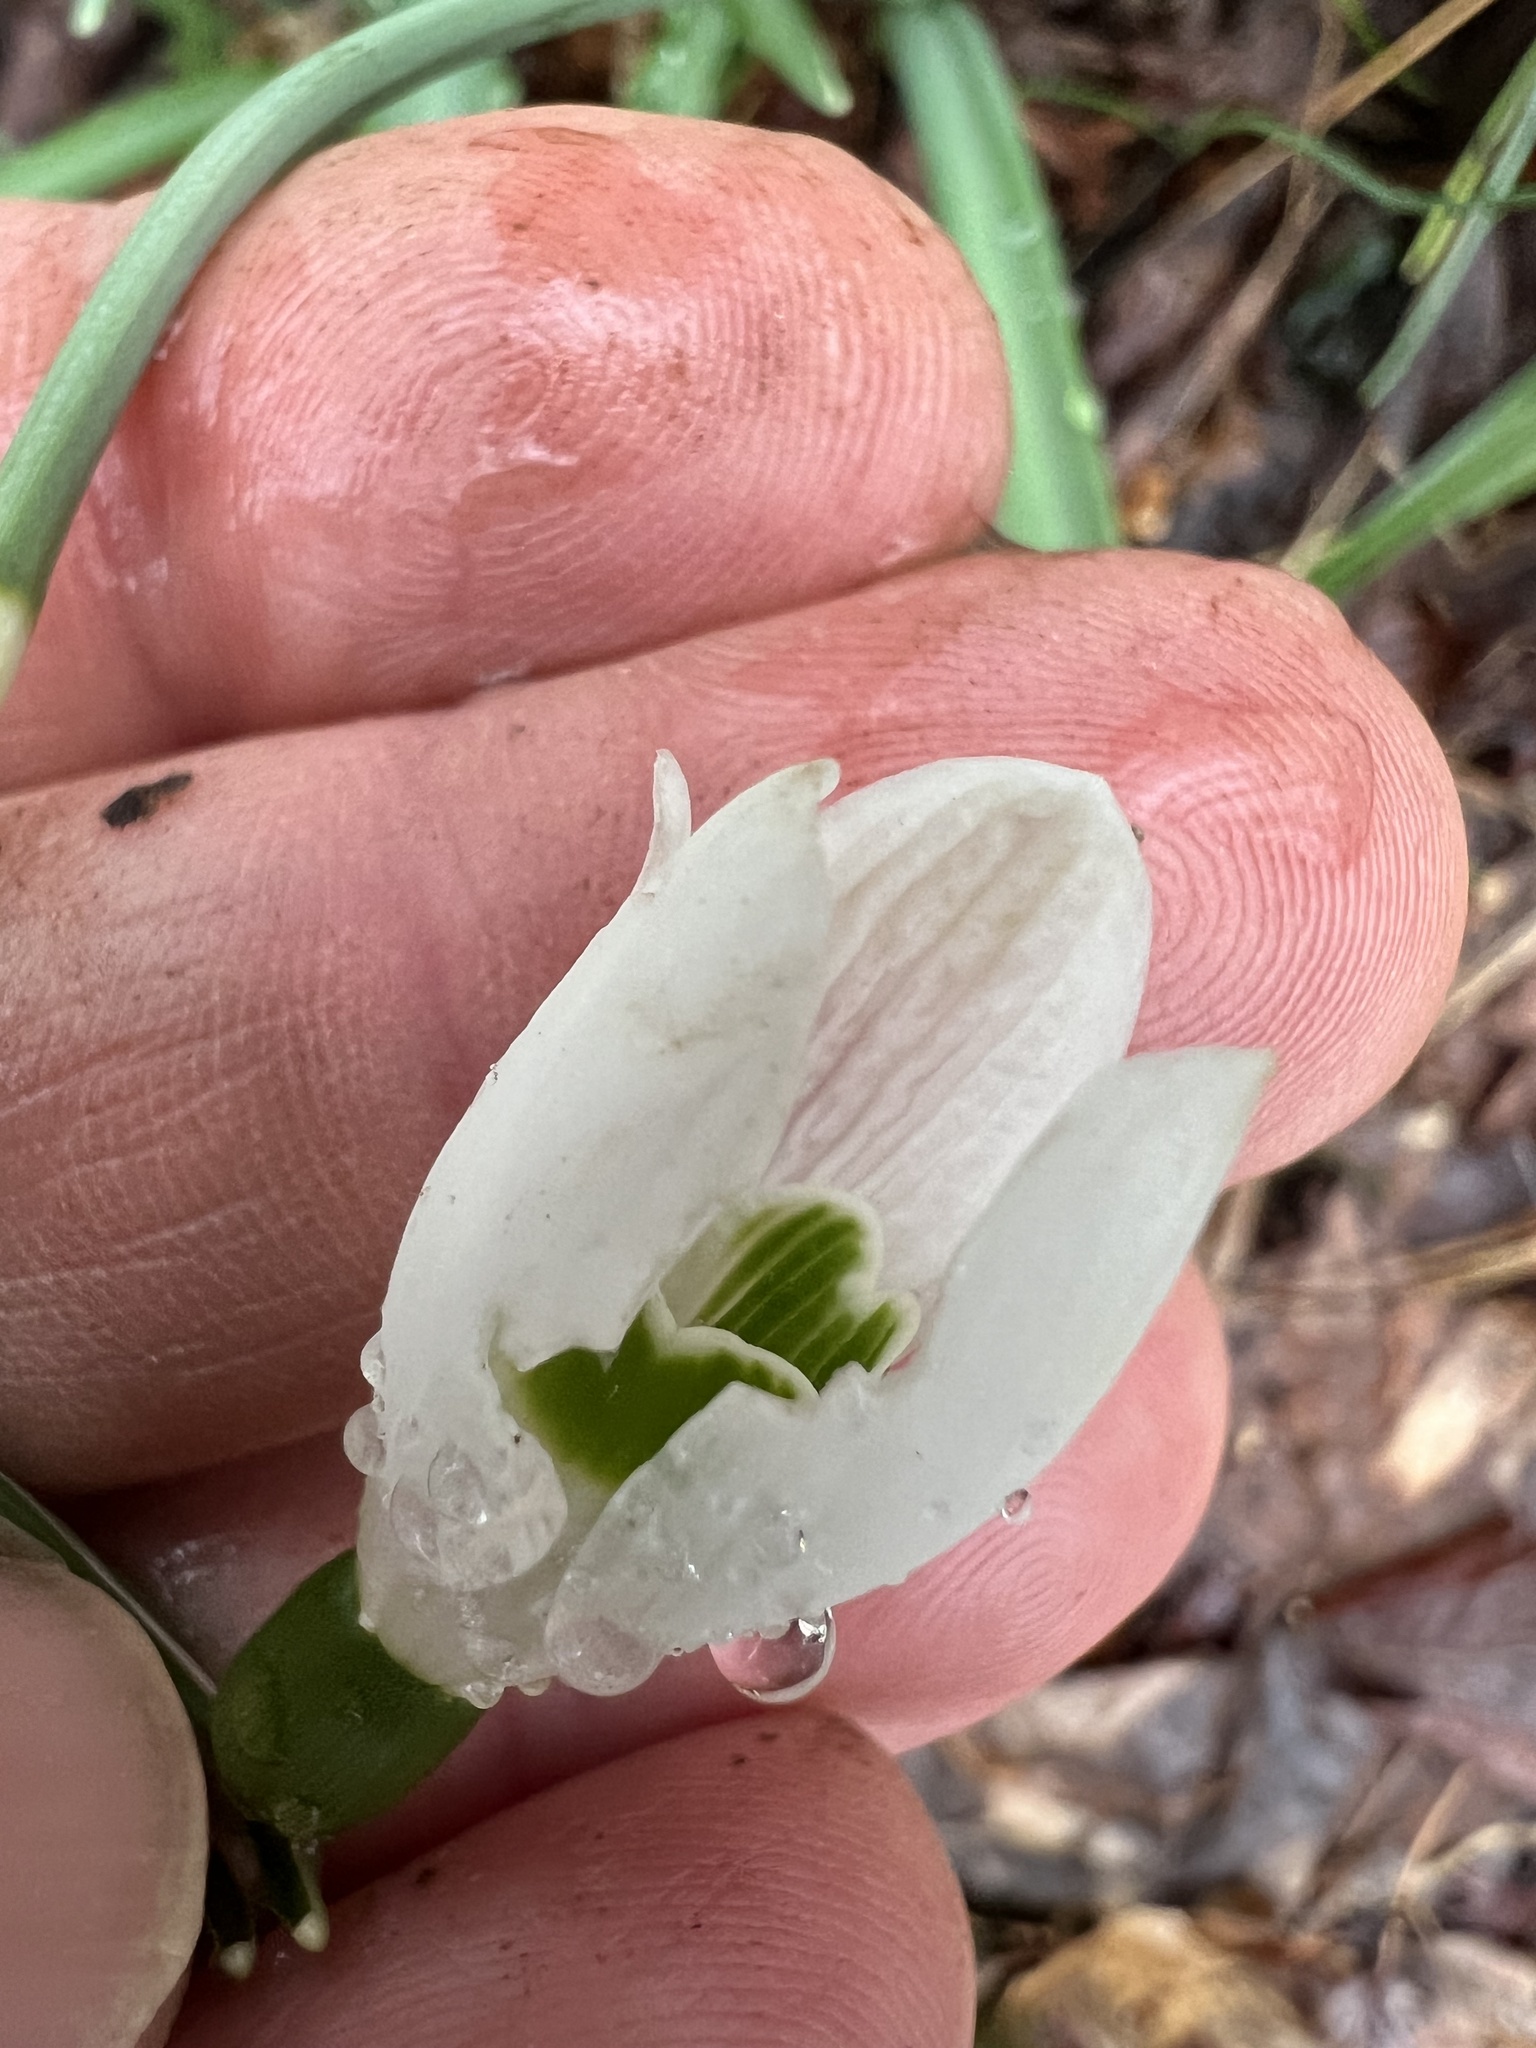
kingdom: Plantae
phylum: Tracheophyta
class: Liliopsida
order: Asparagales
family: Amaryllidaceae
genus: Galanthus
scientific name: Galanthus nivalis
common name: Snowdrop
